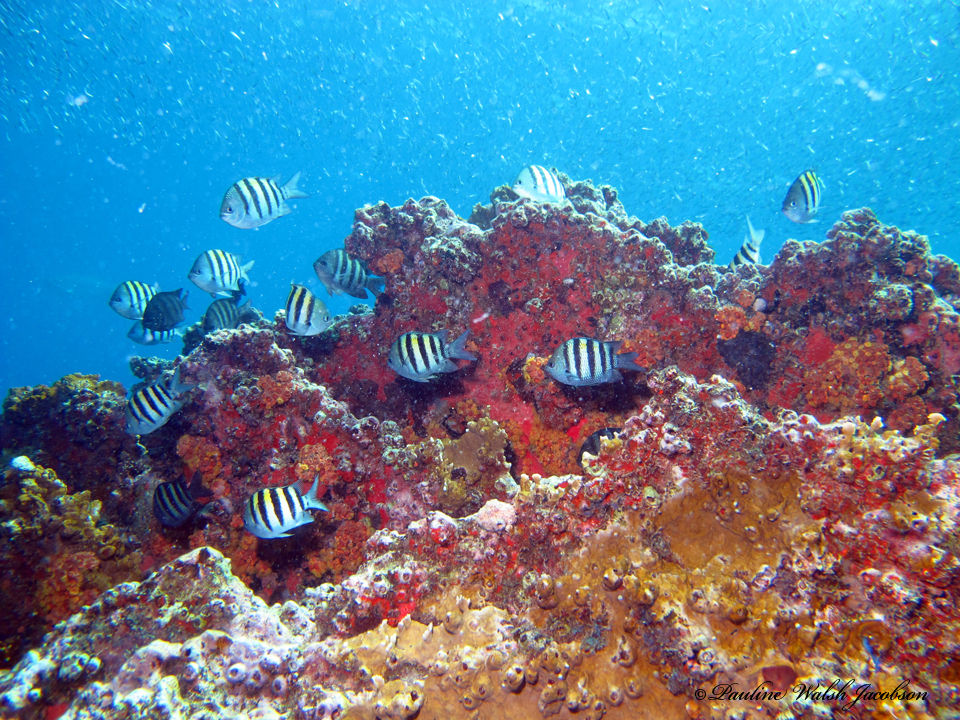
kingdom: Animalia
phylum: Chordata
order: Perciformes
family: Pomacentridae
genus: Abudefduf
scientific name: Abudefduf saxatilis
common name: Sergeant major
